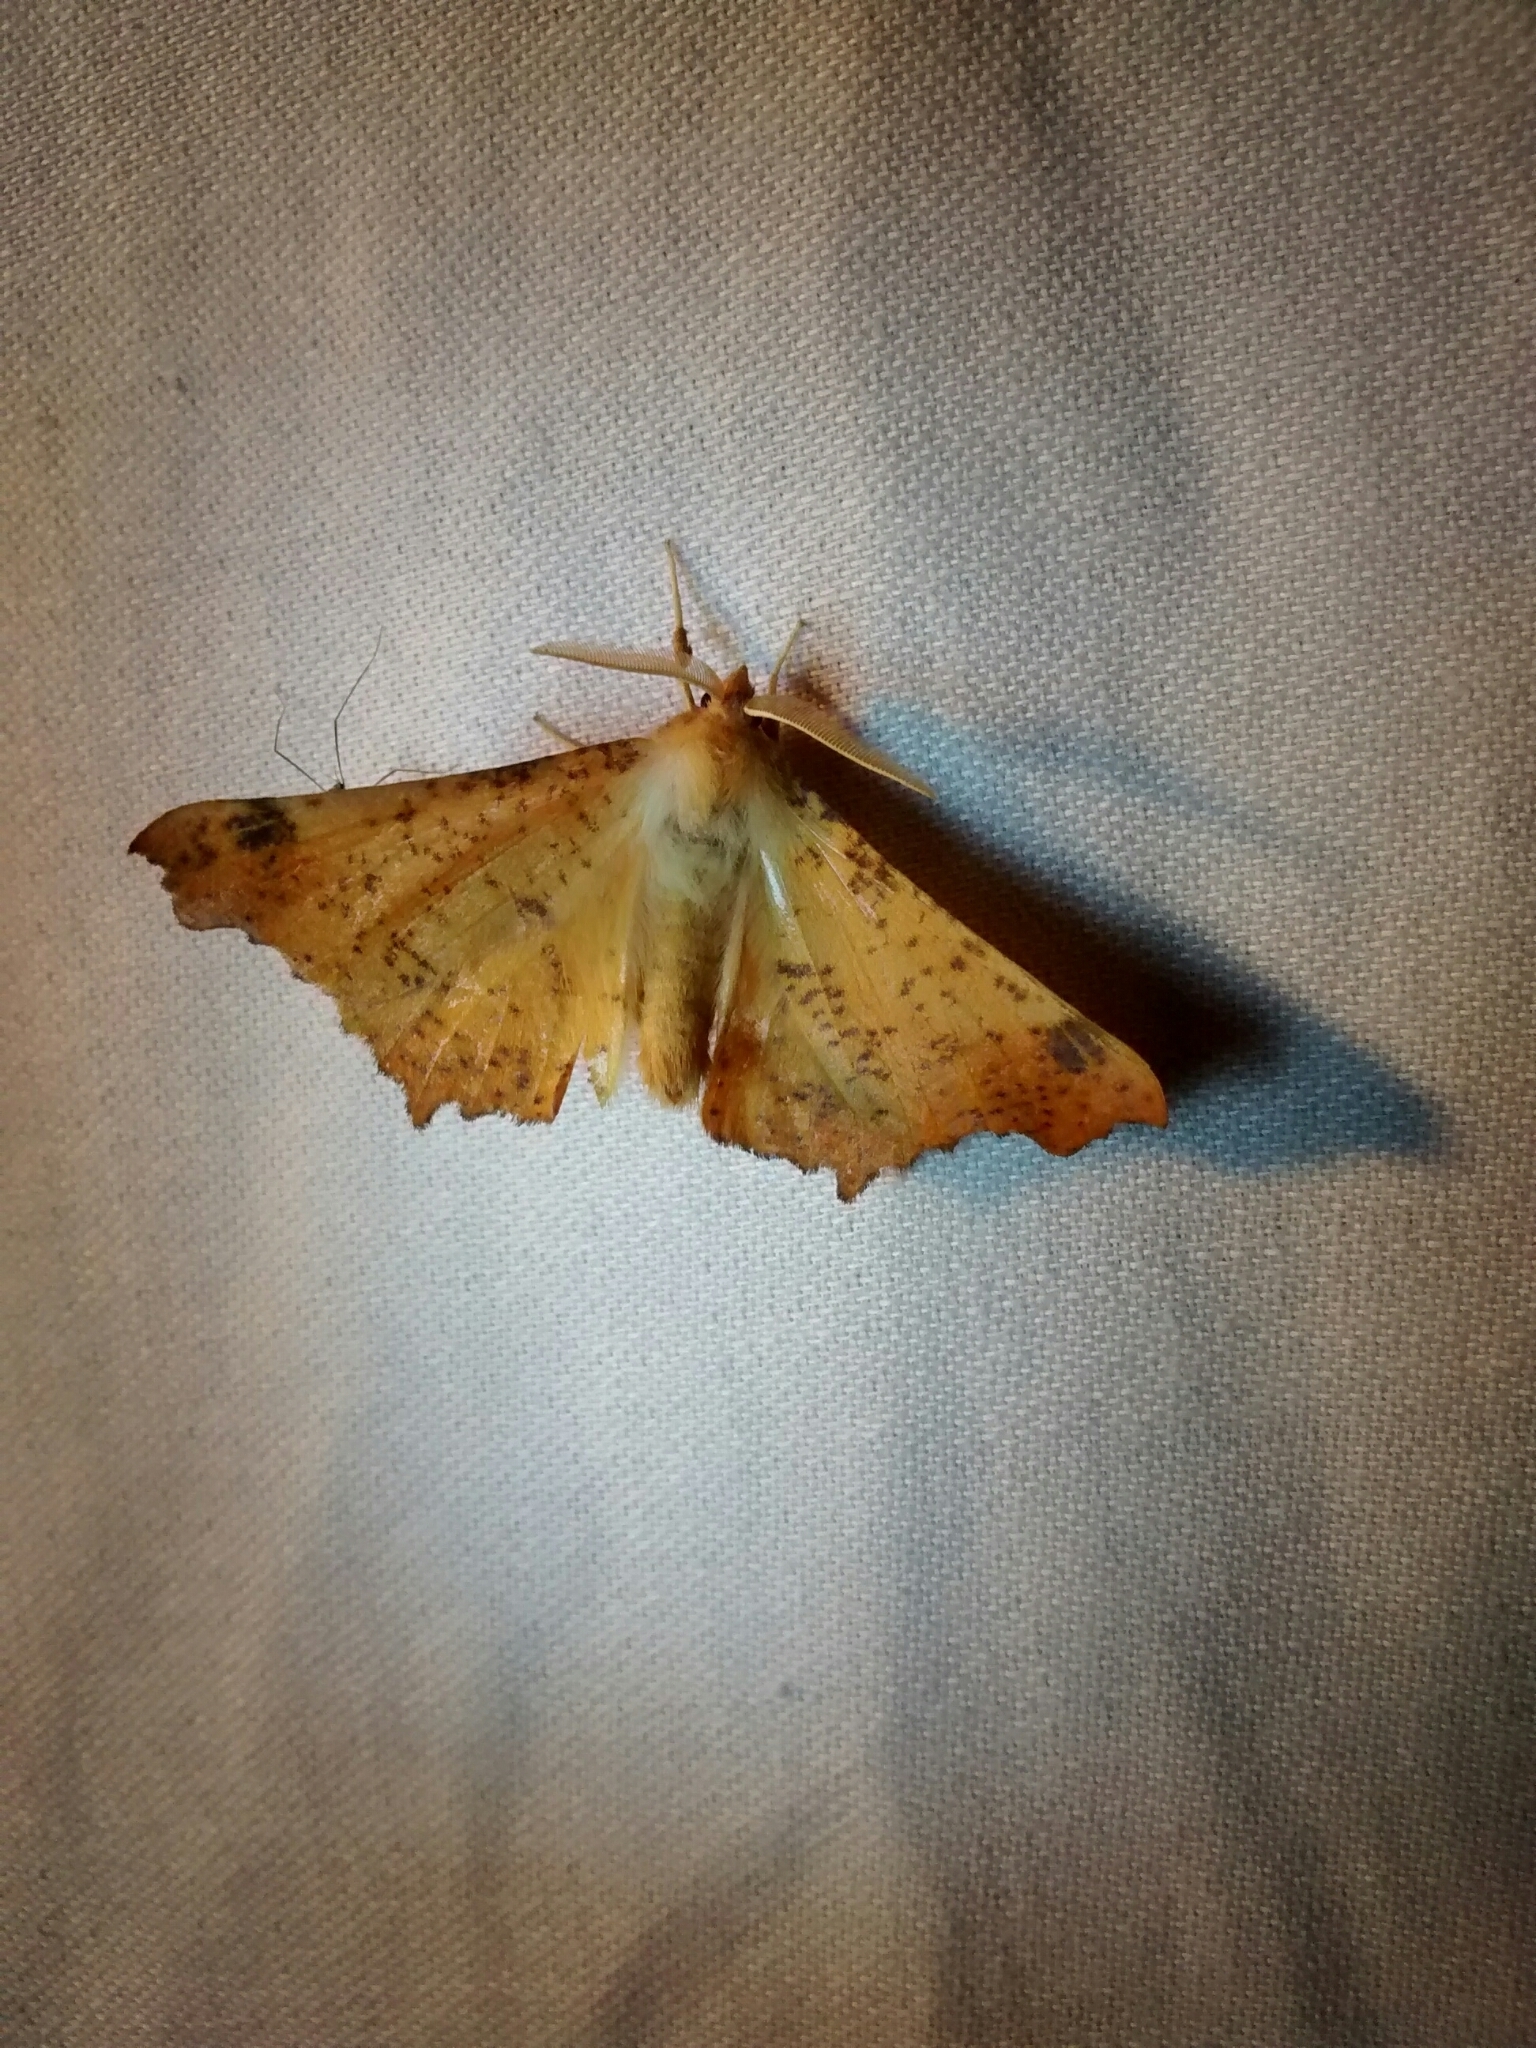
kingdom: Animalia
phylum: Arthropoda
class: Insecta
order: Lepidoptera
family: Geometridae
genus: Ennomos
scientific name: Ennomos magnaria
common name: Maple spanworm
